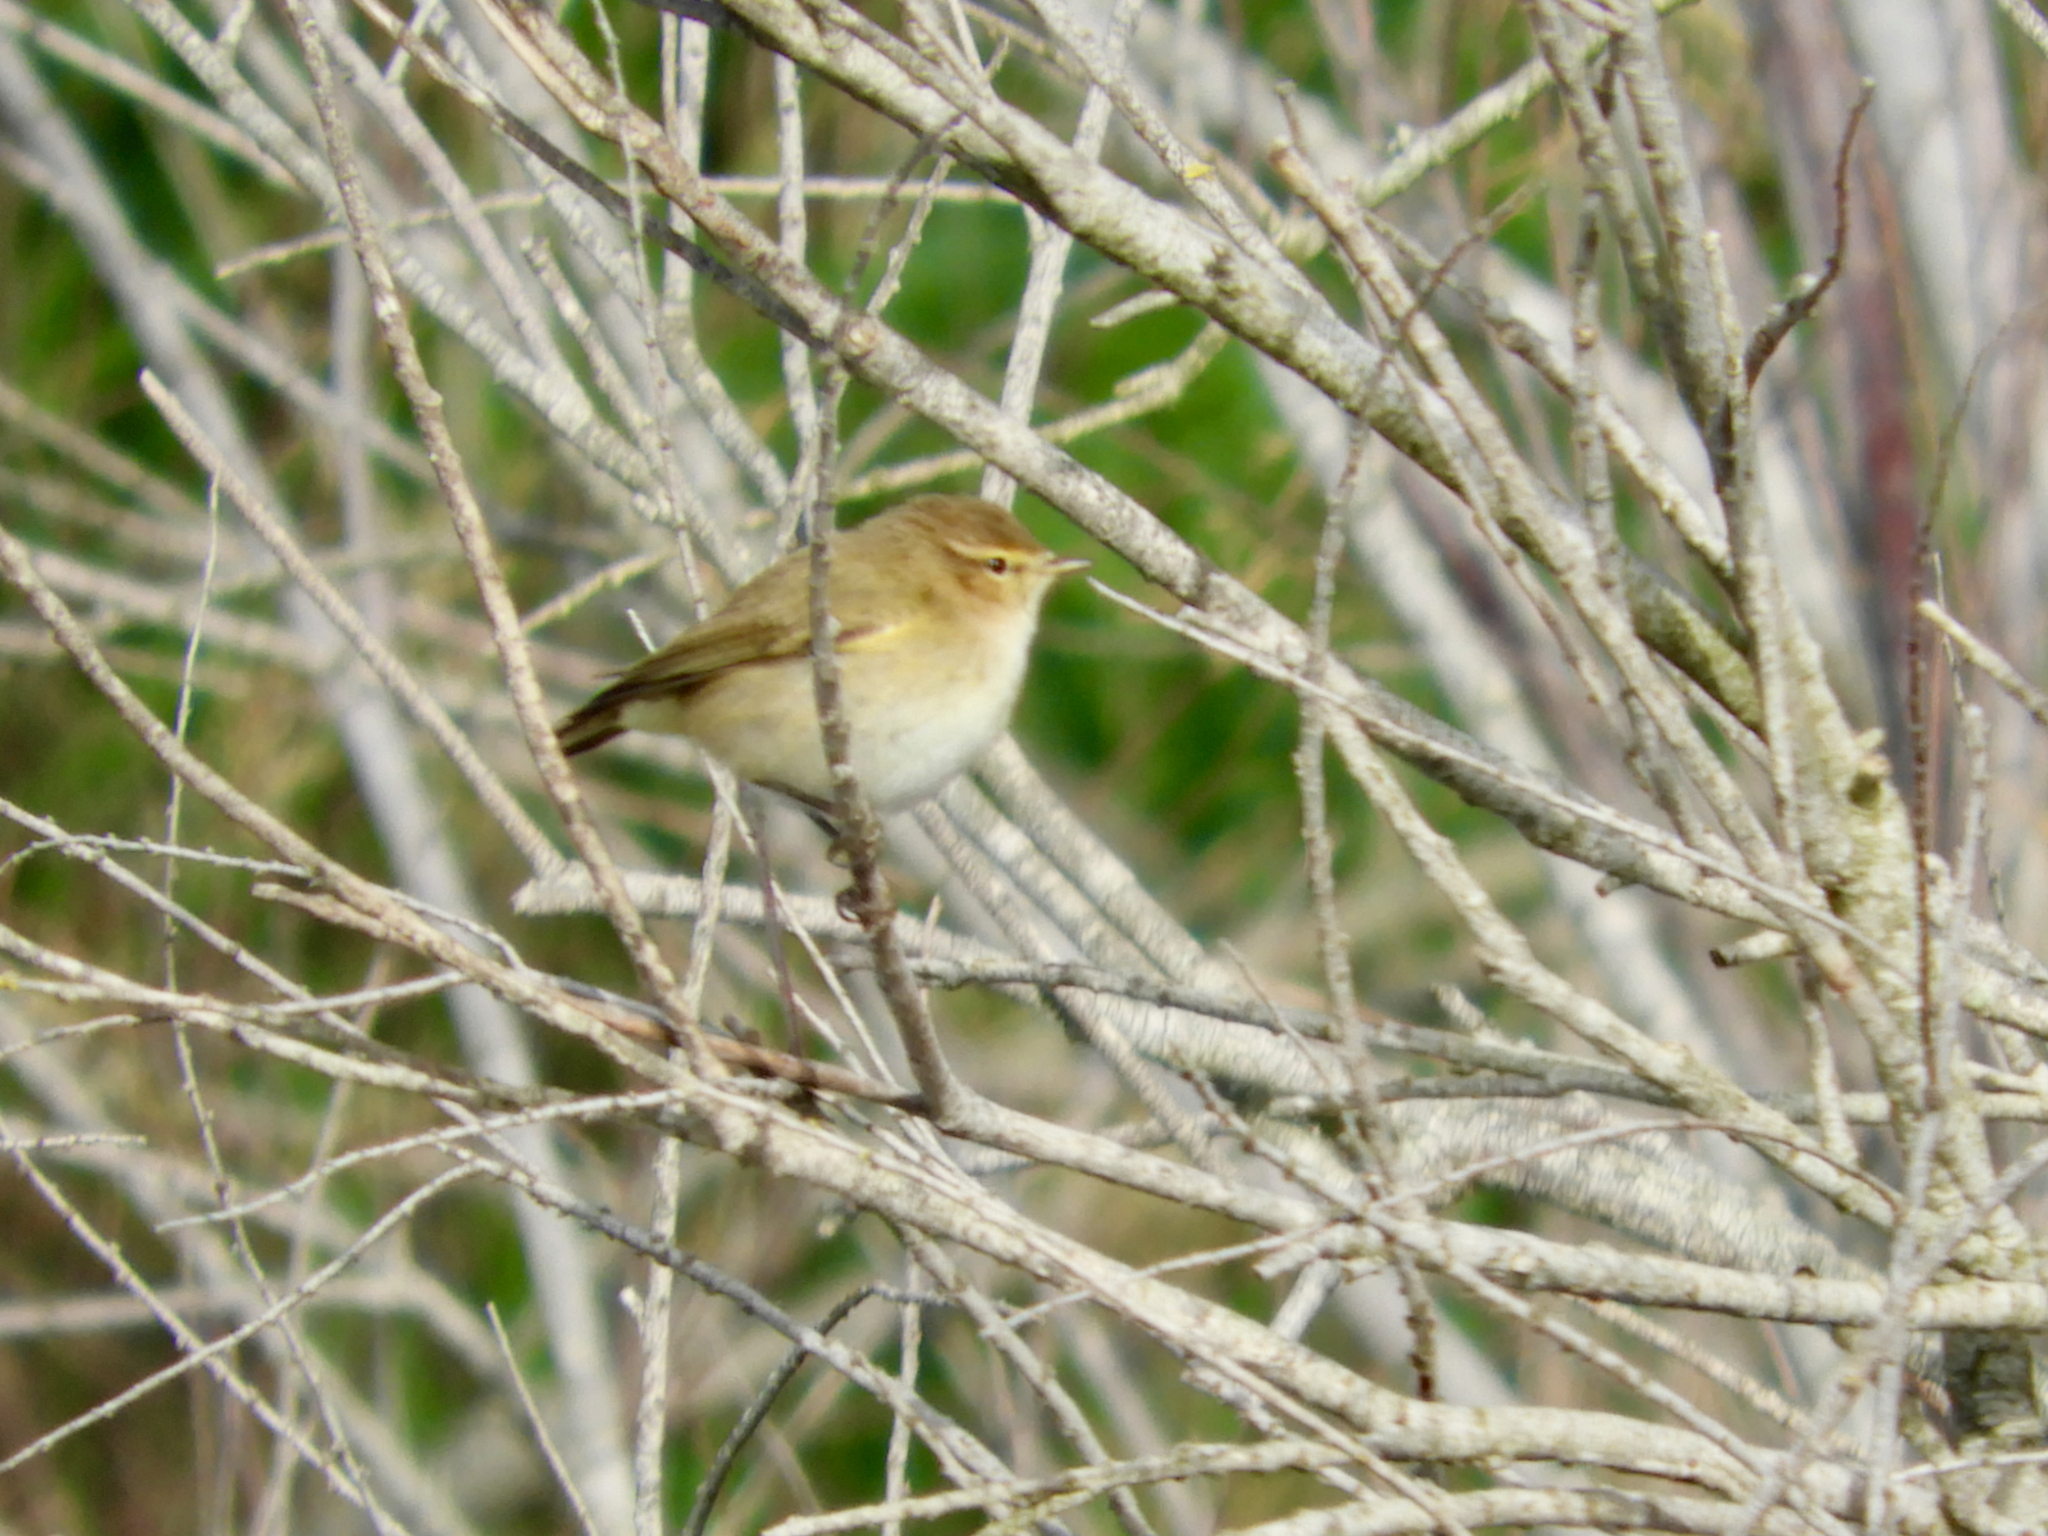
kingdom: Animalia
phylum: Chordata
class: Aves
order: Passeriformes
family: Phylloscopidae
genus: Phylloscopus
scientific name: Phylloscopus collybita
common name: Common chiffchaff
